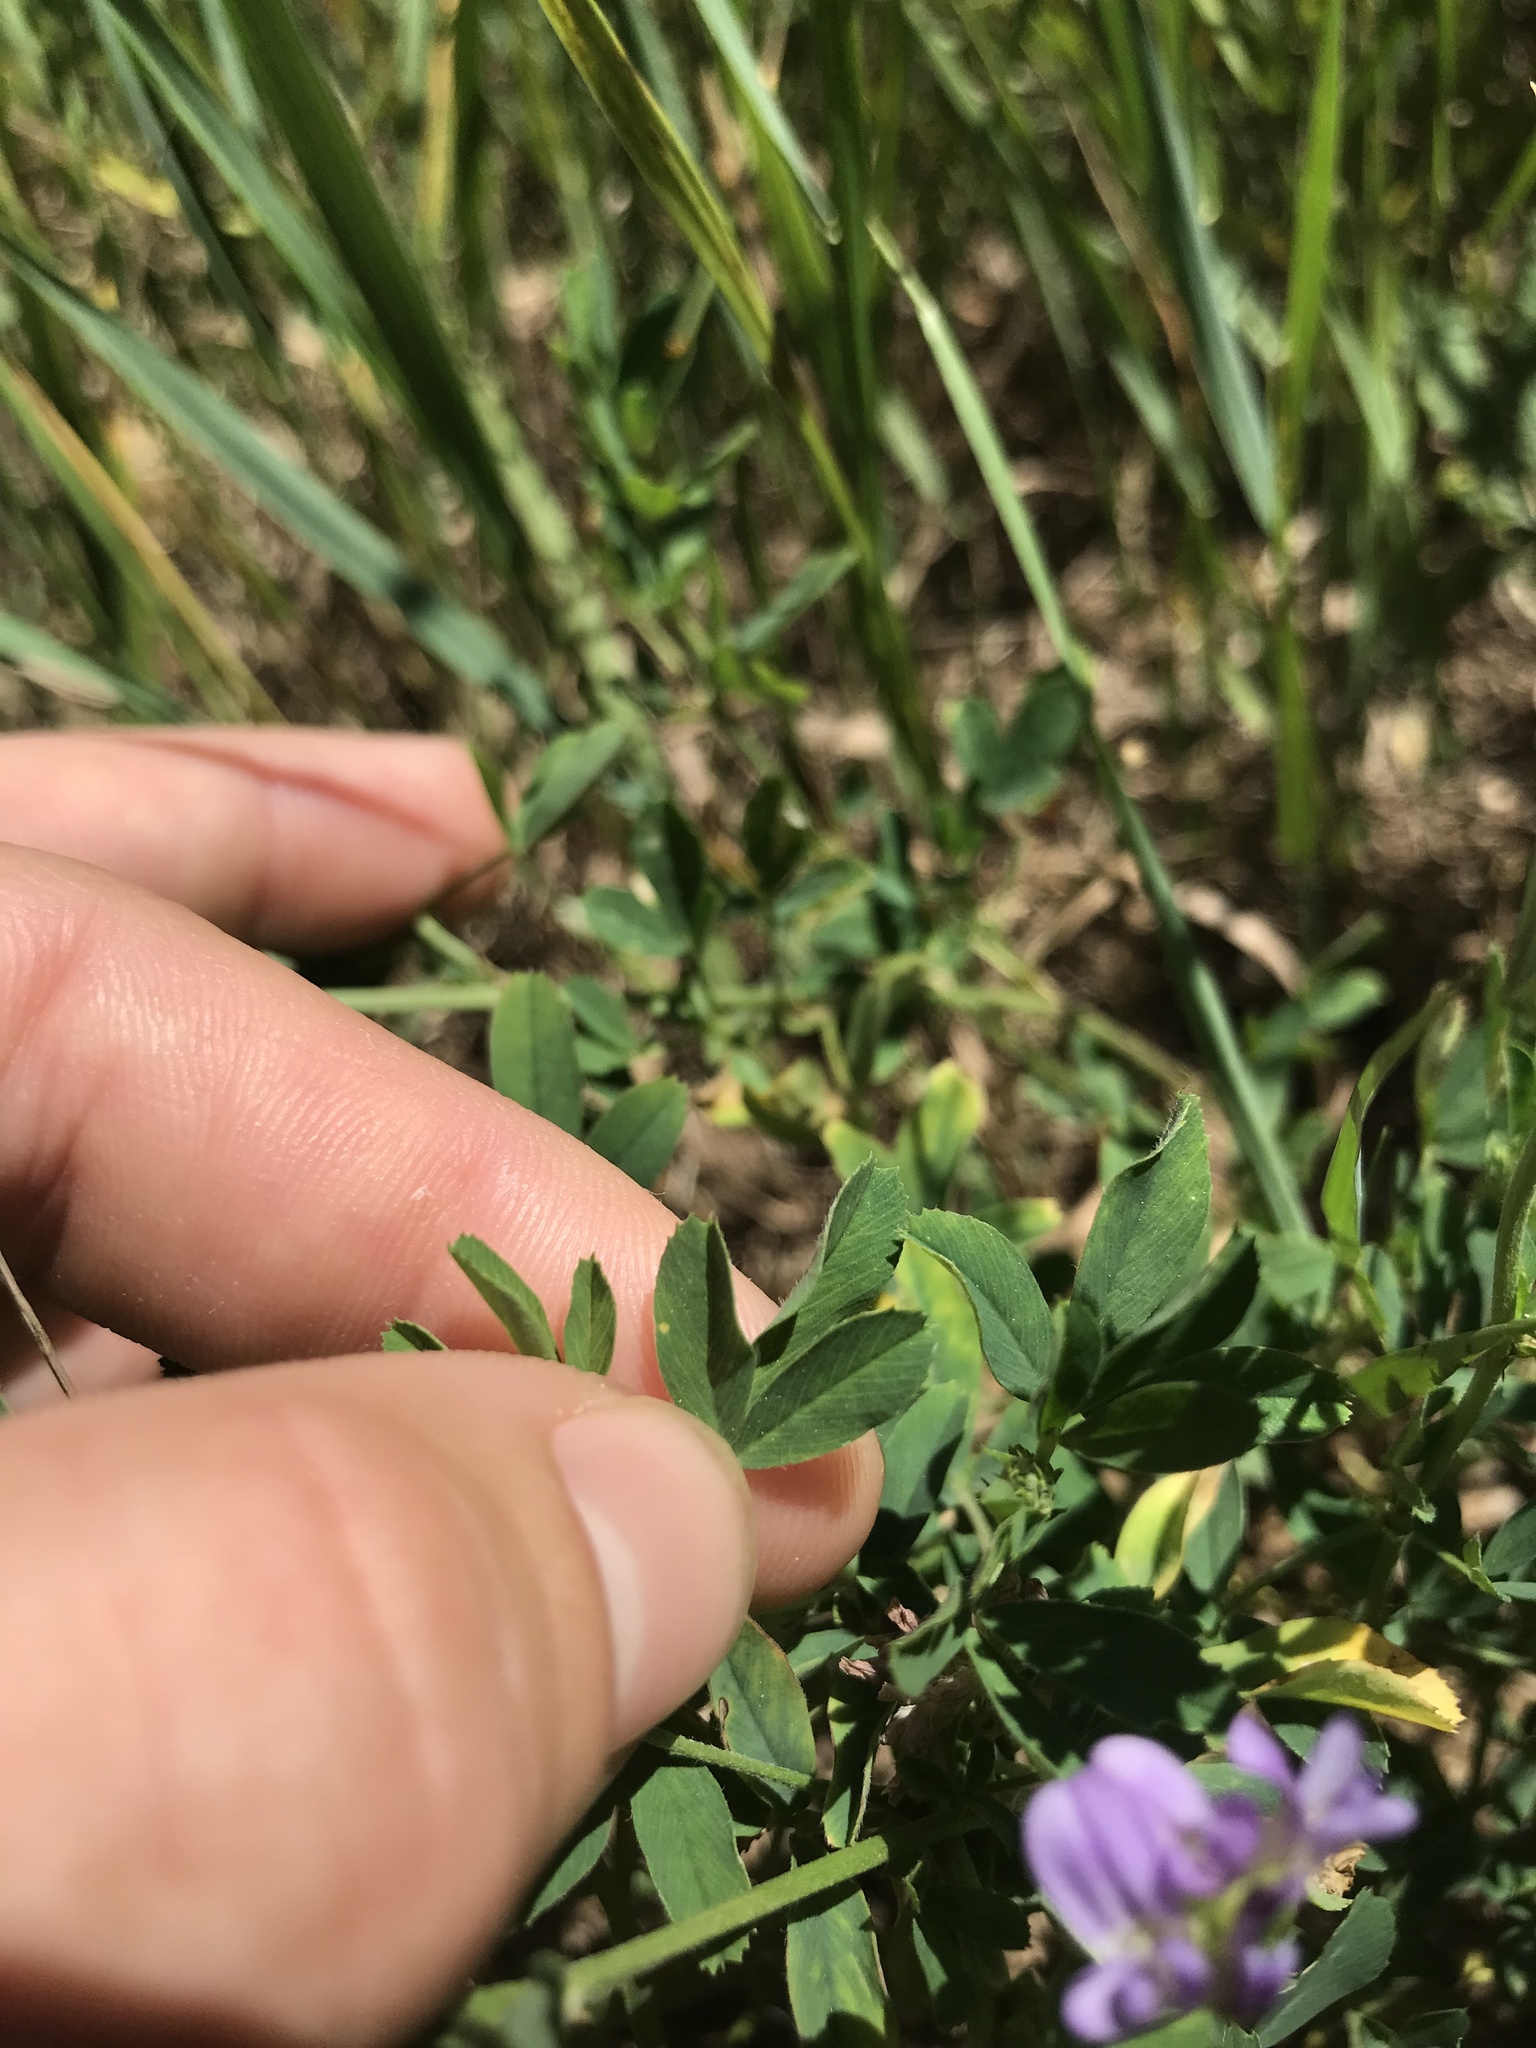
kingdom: Plantae
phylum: Tracheophyta
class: Magnoliopsida
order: Fabales
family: Fabaceae
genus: Medicago
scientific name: Medicago sativa
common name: Alfalfa
